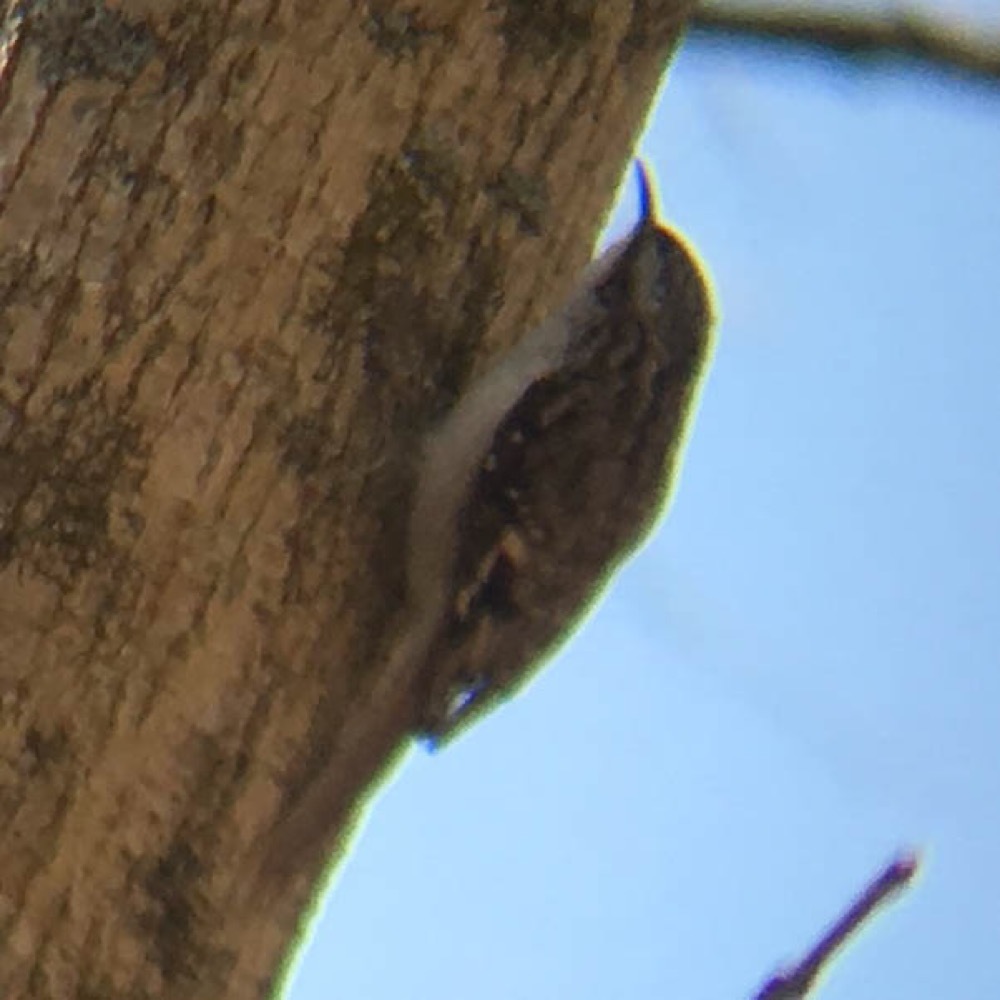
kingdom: Animalia
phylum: Chordata
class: Aves
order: Passeriformes
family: Certhiidae
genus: Certhia
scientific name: Certhia americana
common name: Brown creeper
